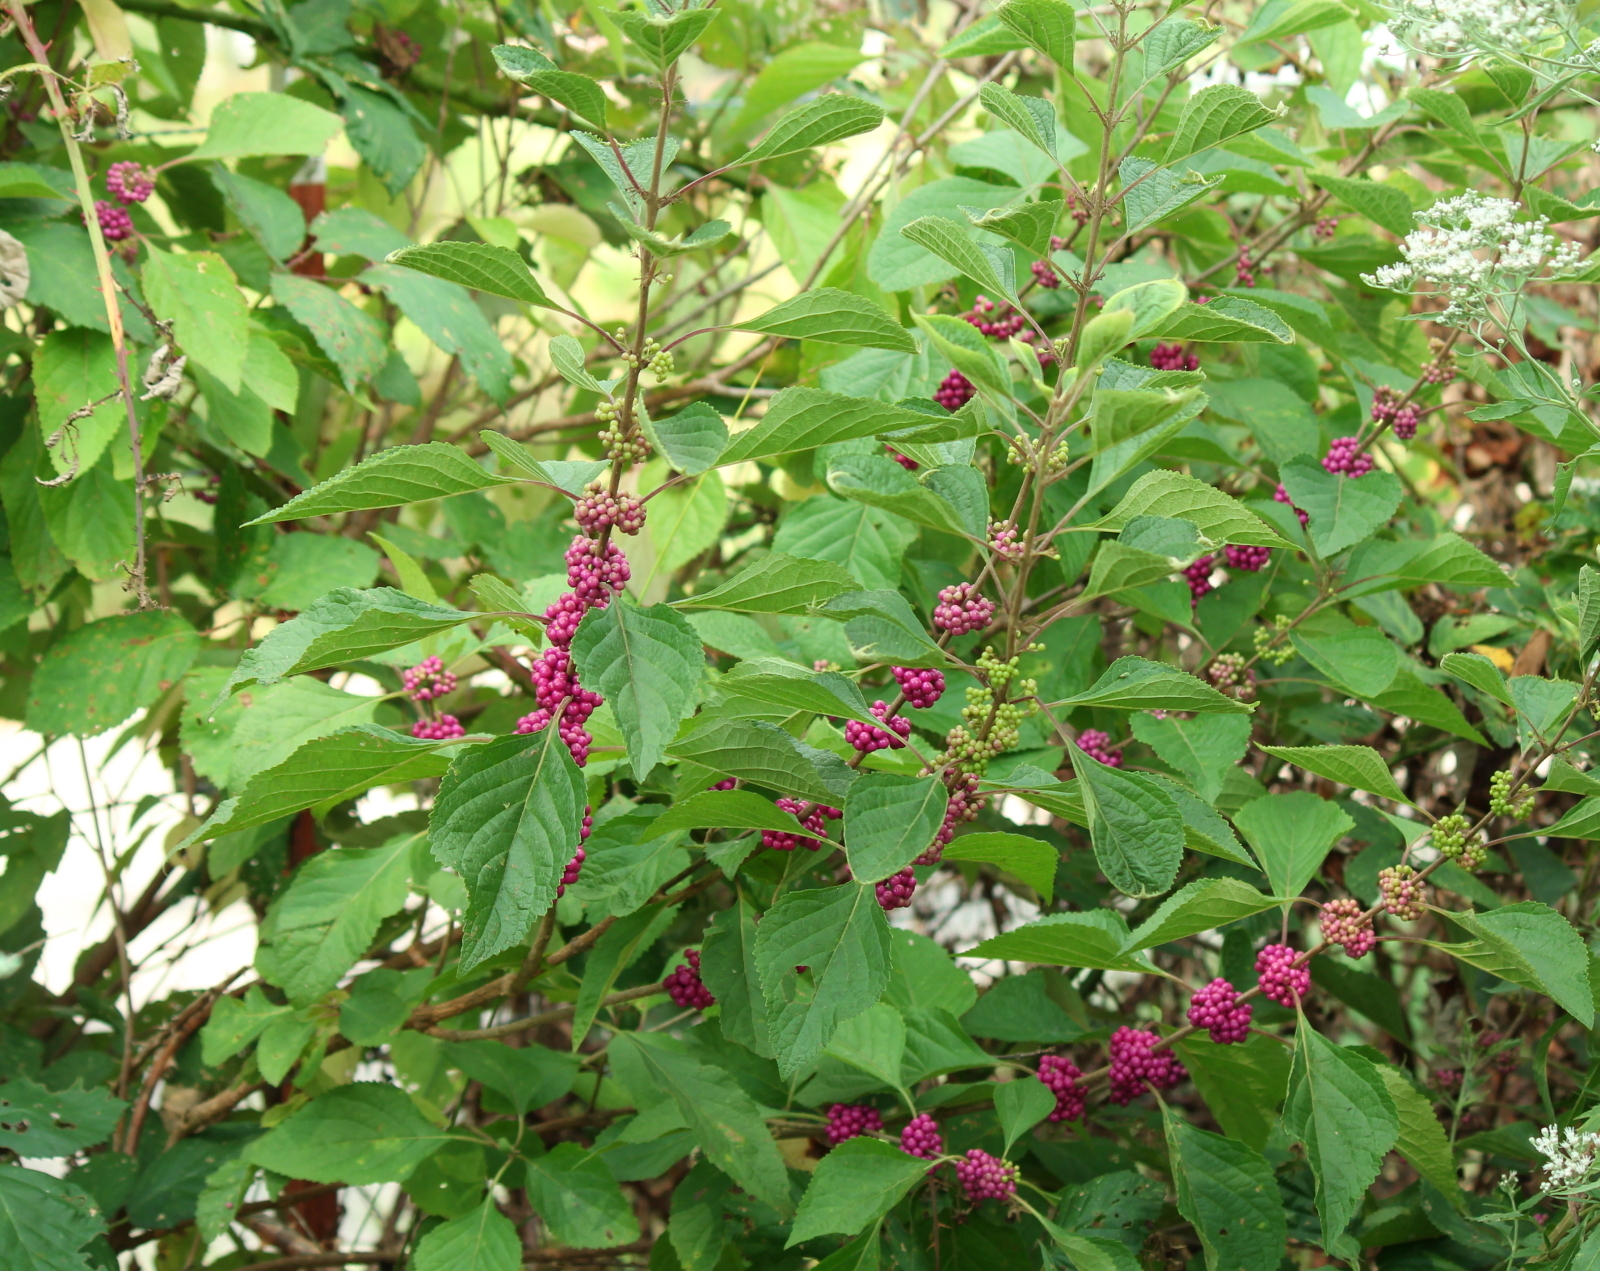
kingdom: Plantae
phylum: Tracheophyta
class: Magnoliopsida
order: Lamiales
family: Lamiaceae
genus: Callicarpa
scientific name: Callicarpa americana
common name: American beautyberry
